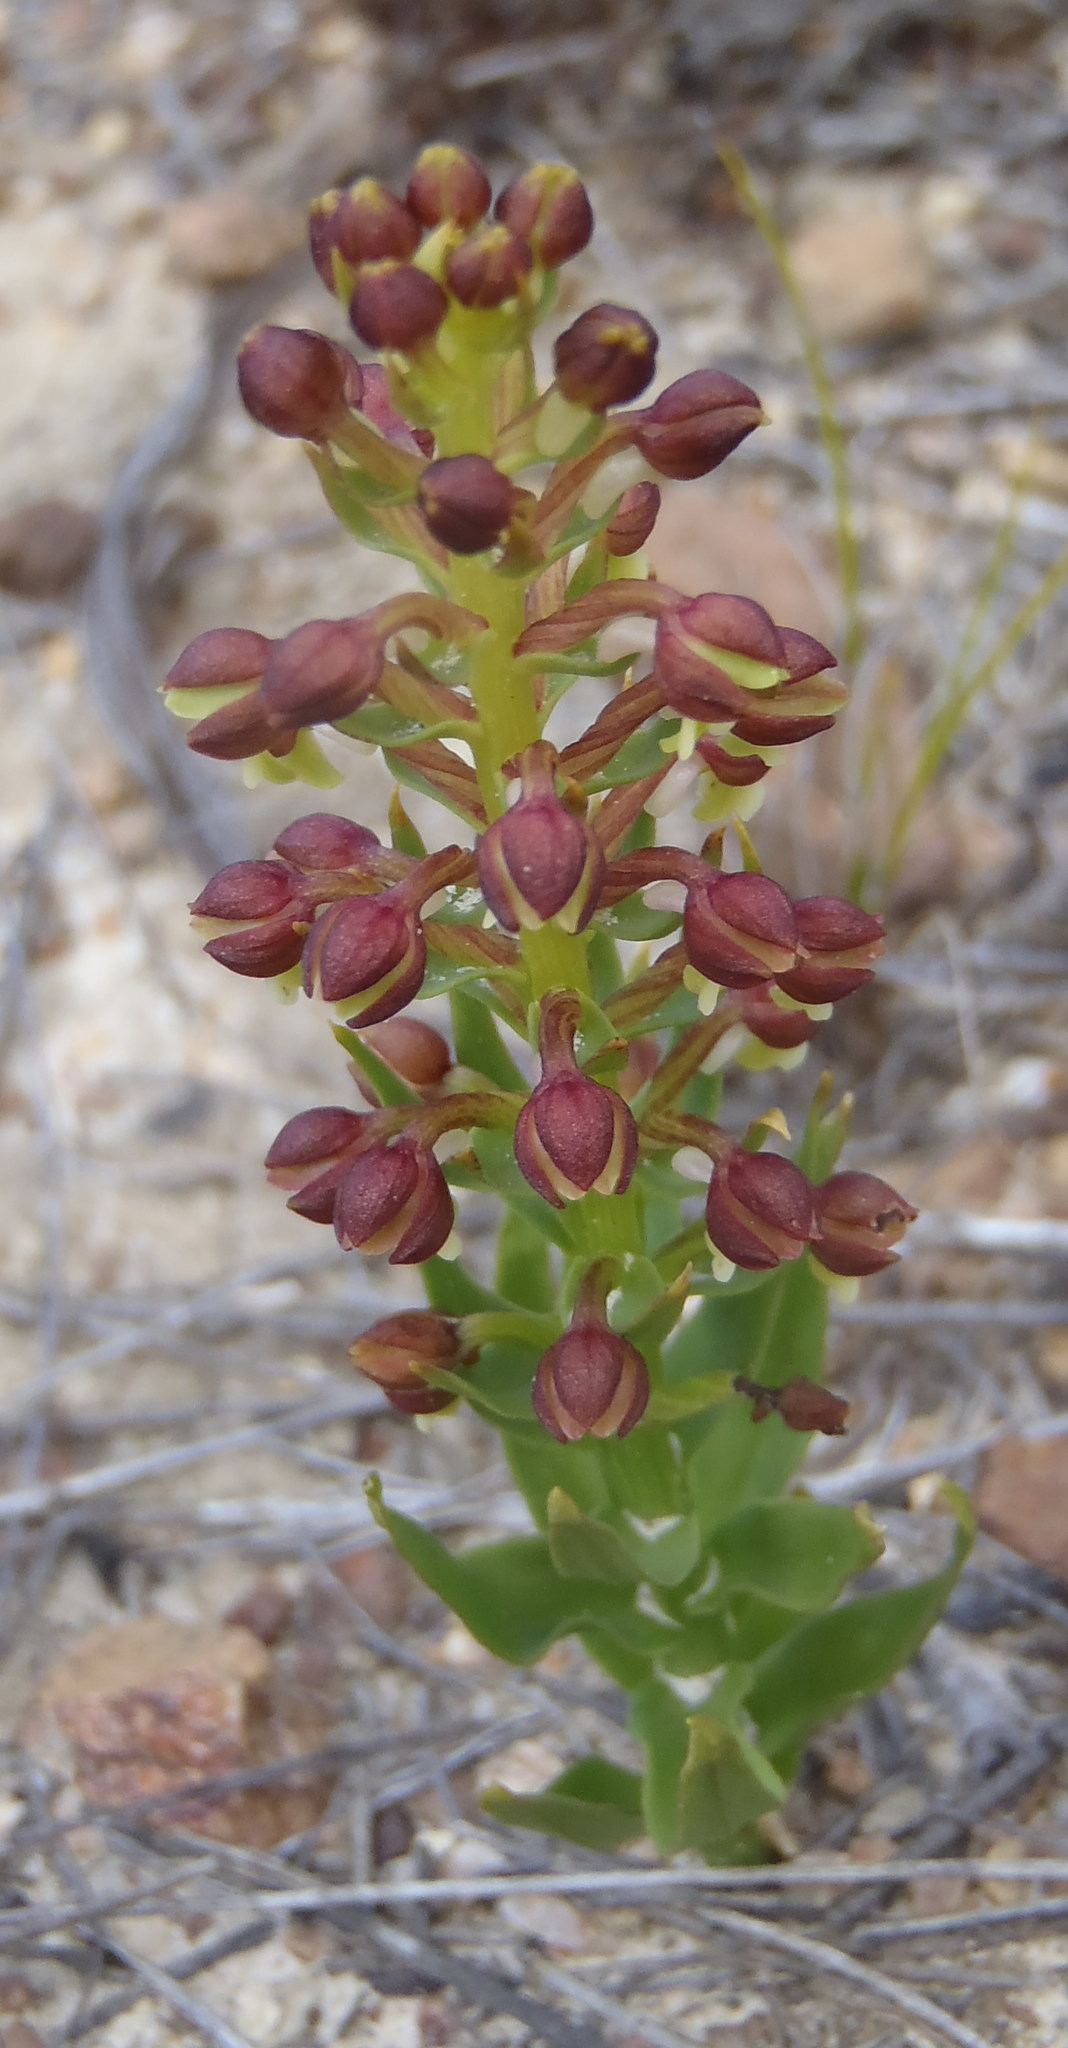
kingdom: Plantae
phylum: Tracheophyta
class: Liliopsida
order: Asparagales
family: Orchidaceae
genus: Brachycorythis
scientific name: Brachycorythis mac-owaniana
